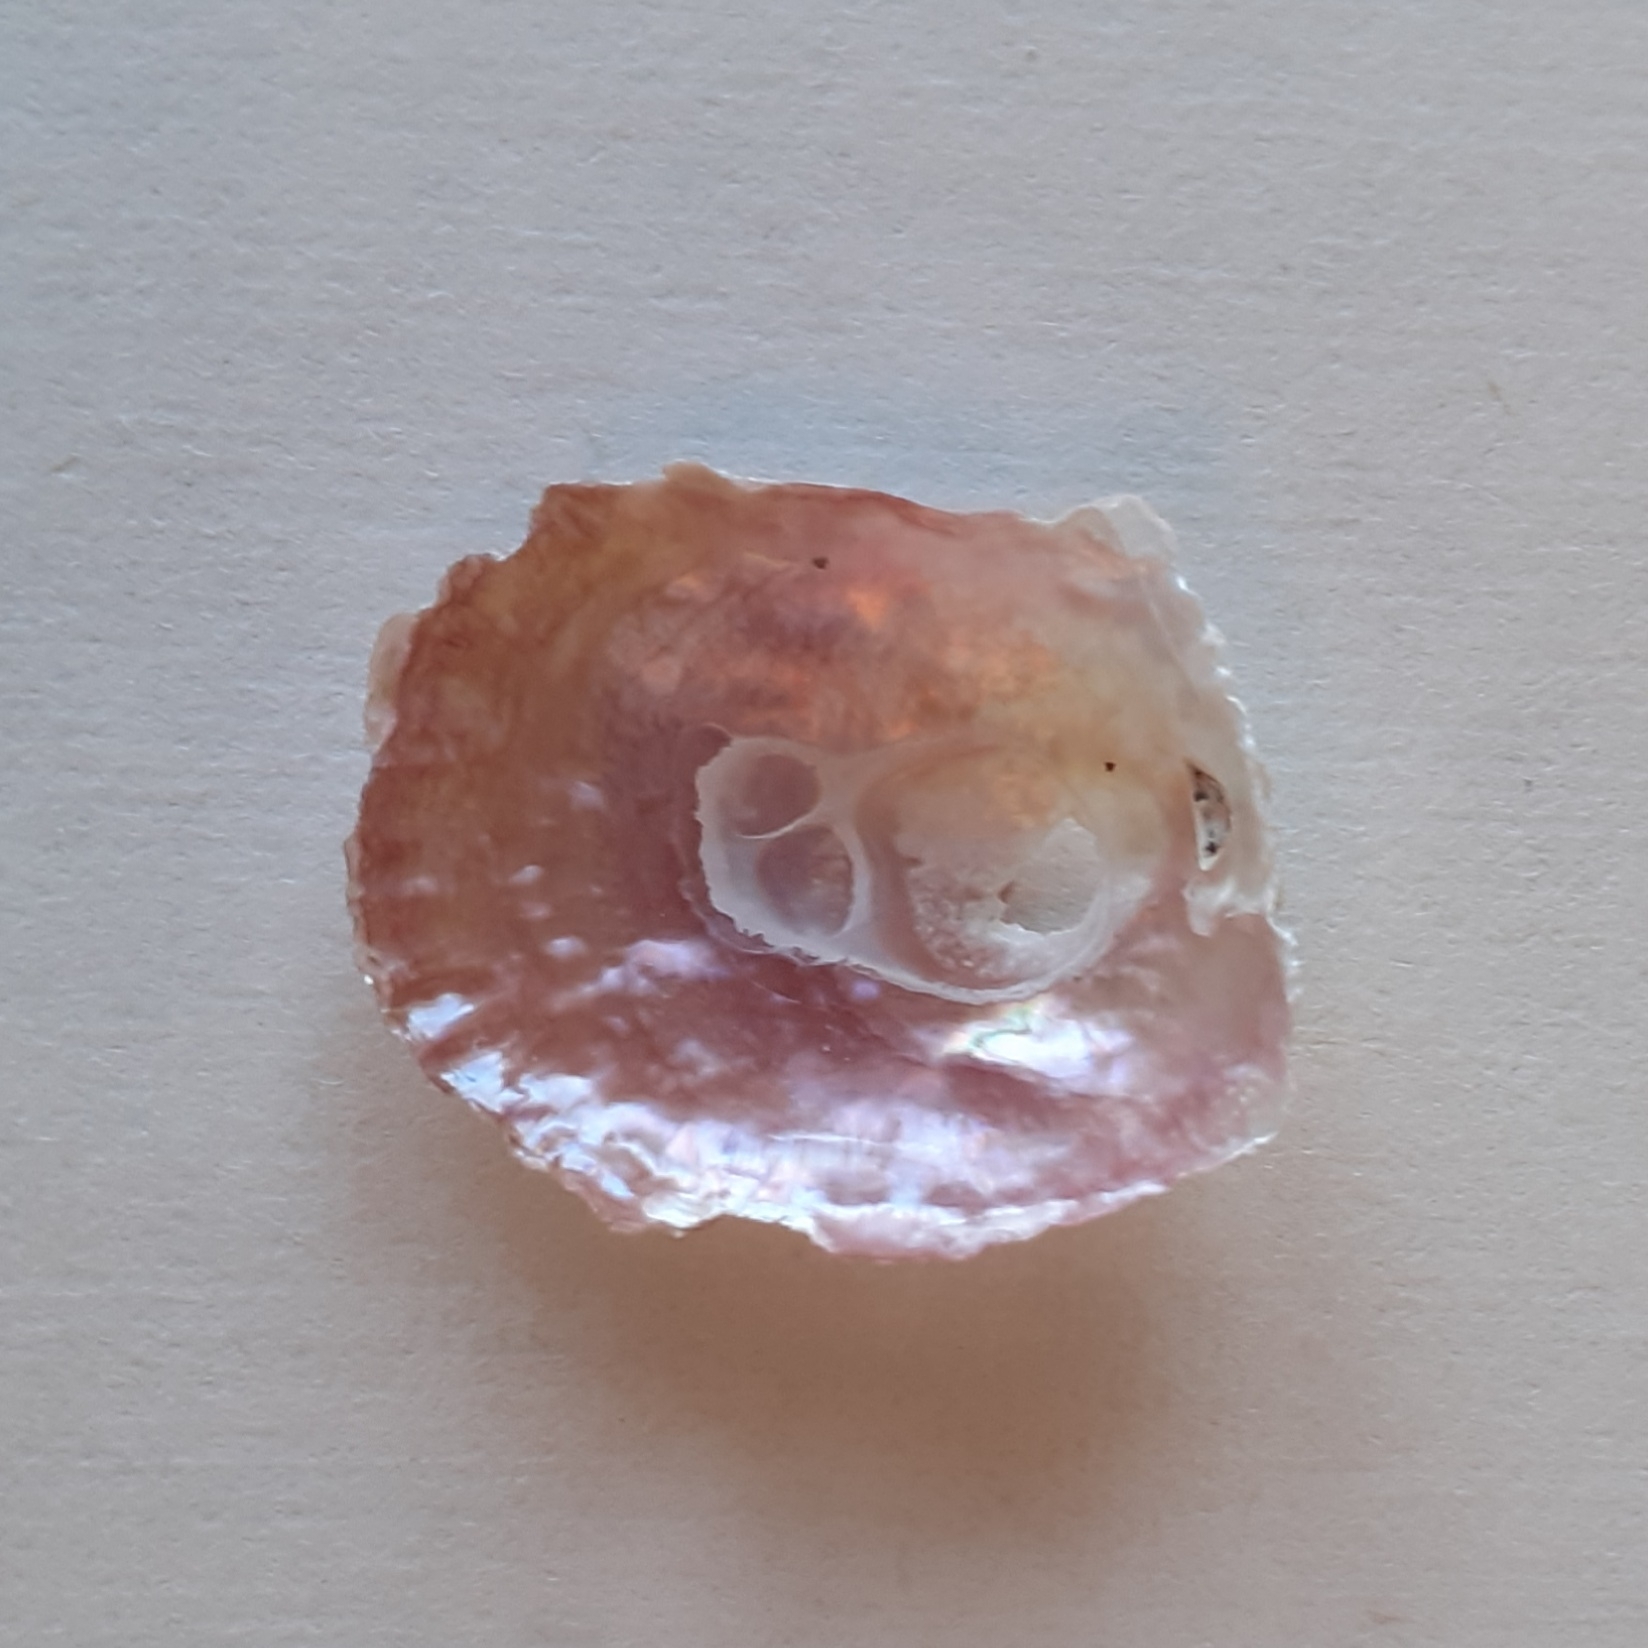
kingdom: Animalia
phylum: Mollusca
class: Bivalvia
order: Pectinida
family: Anomiidae
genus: Anomia
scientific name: Anomia ephippium
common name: Saddle oyster
